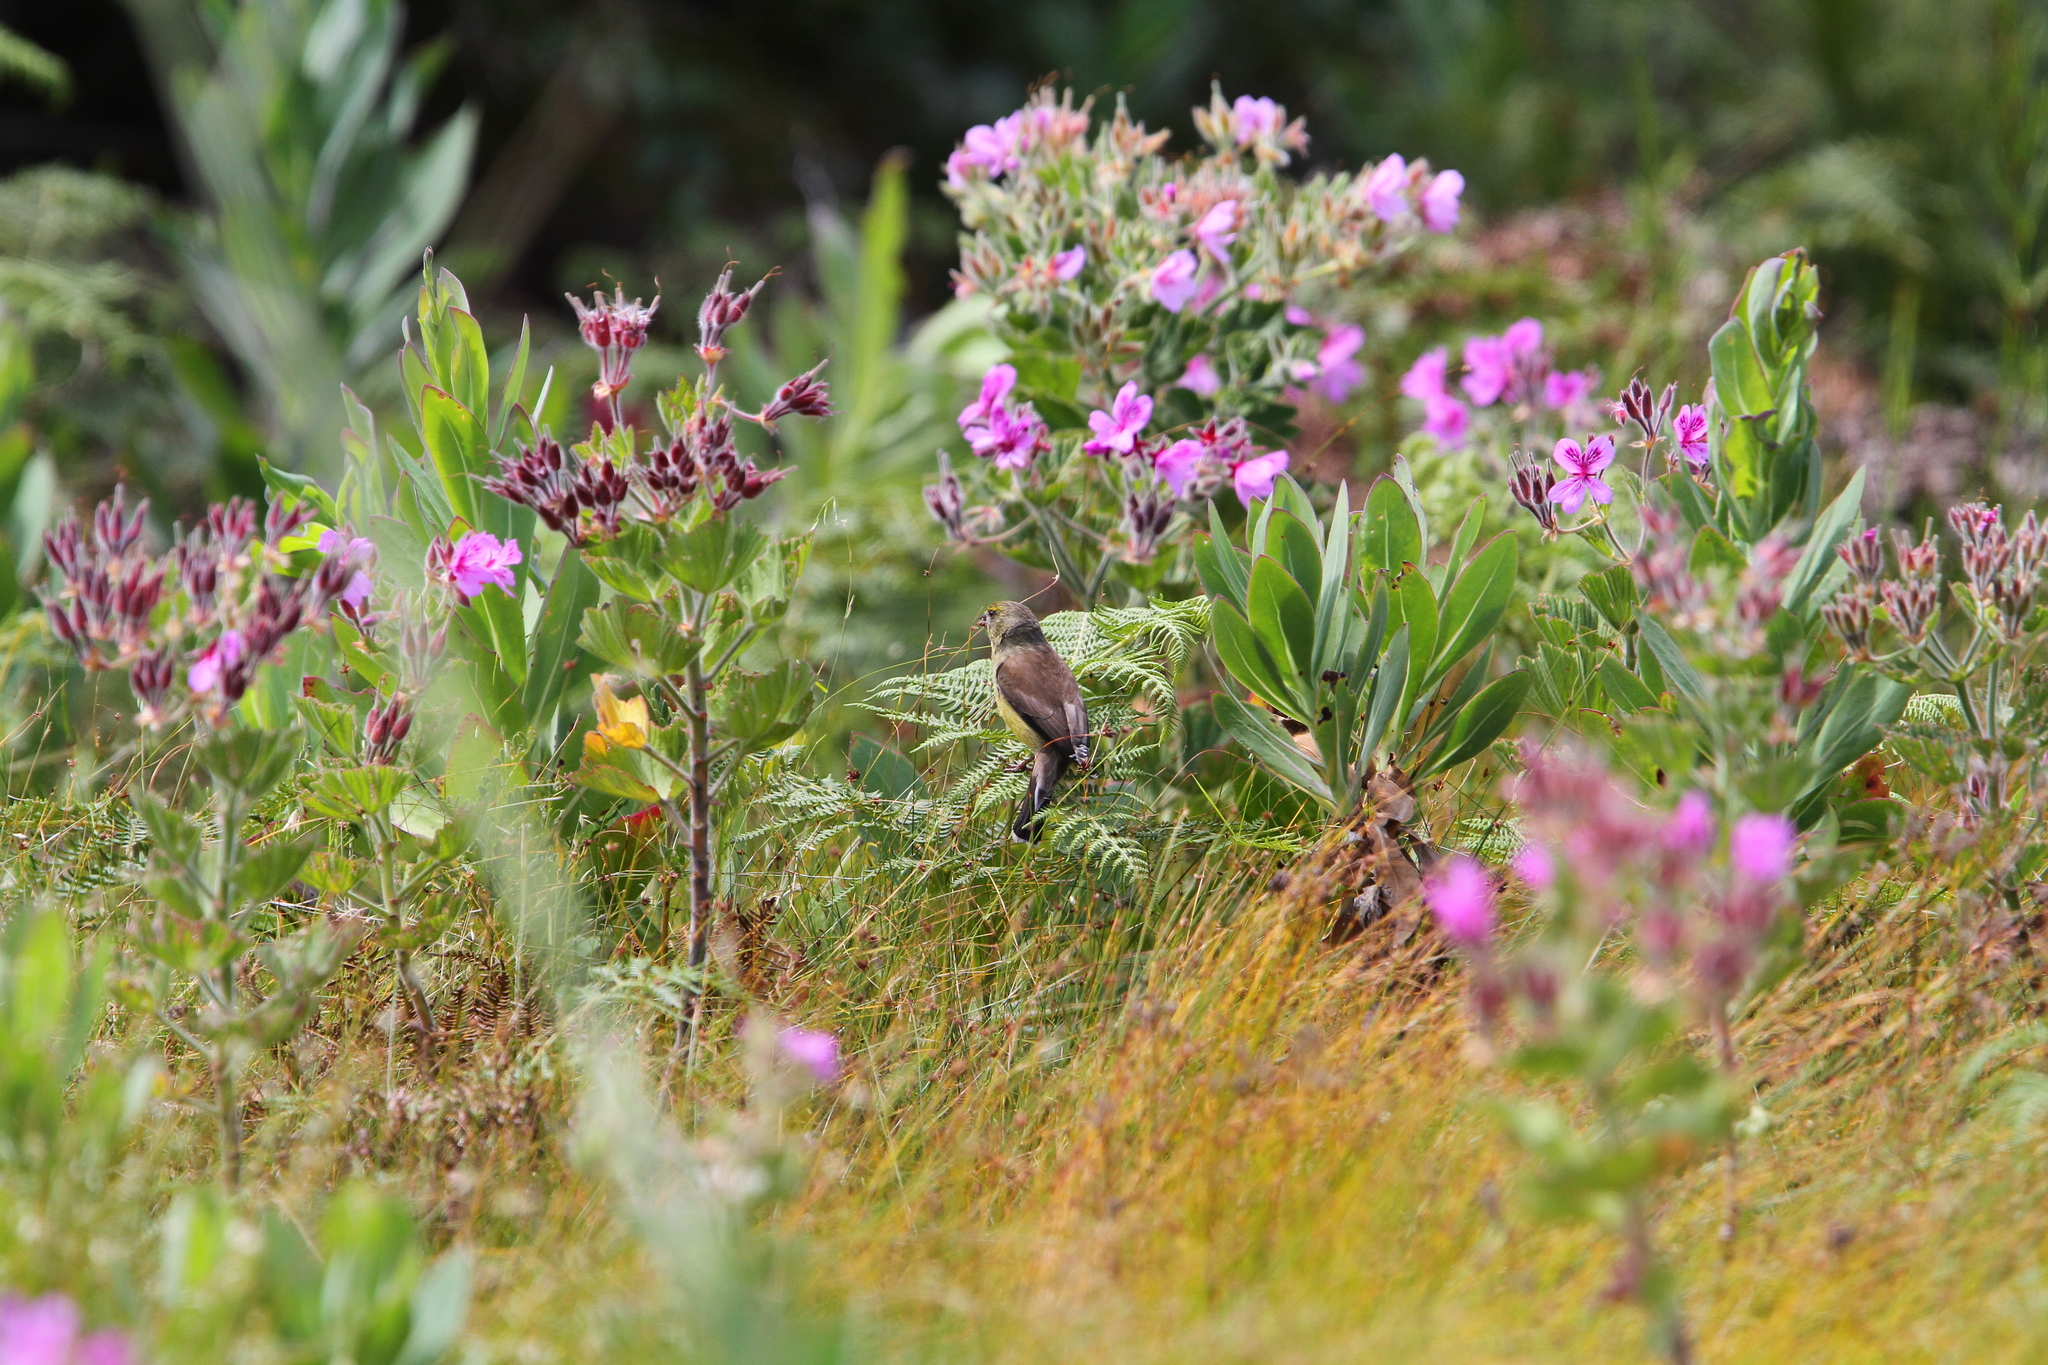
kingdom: Animalia
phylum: Chordata
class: Aves
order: Passeriformes
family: Fringillidae
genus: Crithagra
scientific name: Crithagra totta
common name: Cape siskin
